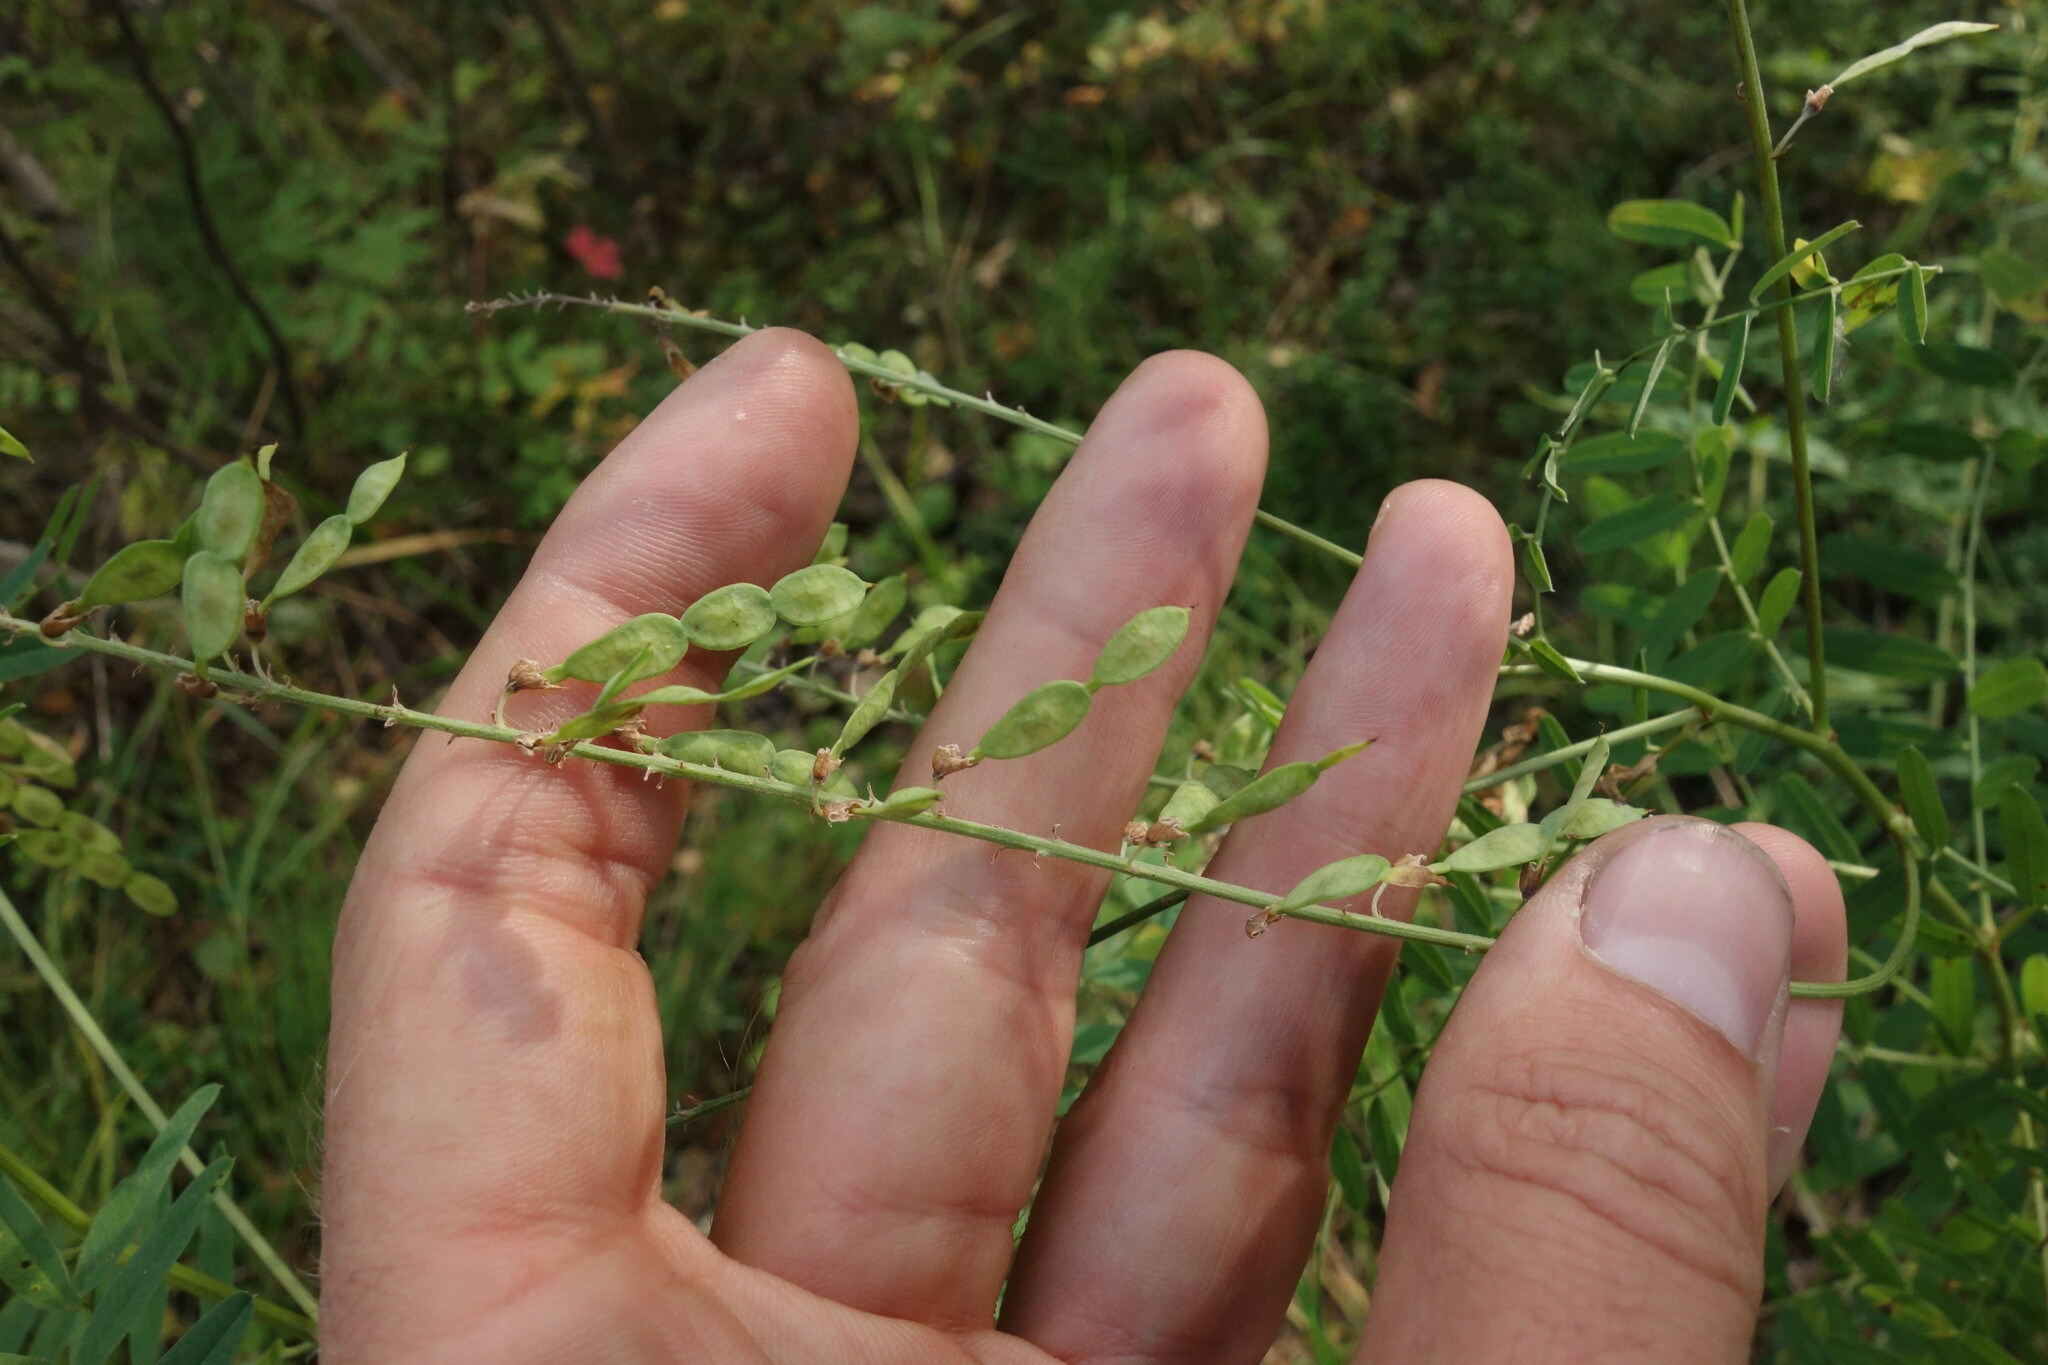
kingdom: Plantae
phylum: Tracheophyta
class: Magnoliopsida
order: Fabales
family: Fabaceae
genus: Hedysarum
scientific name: Hedysarum alpinum
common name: Alpine sweet-vetch
